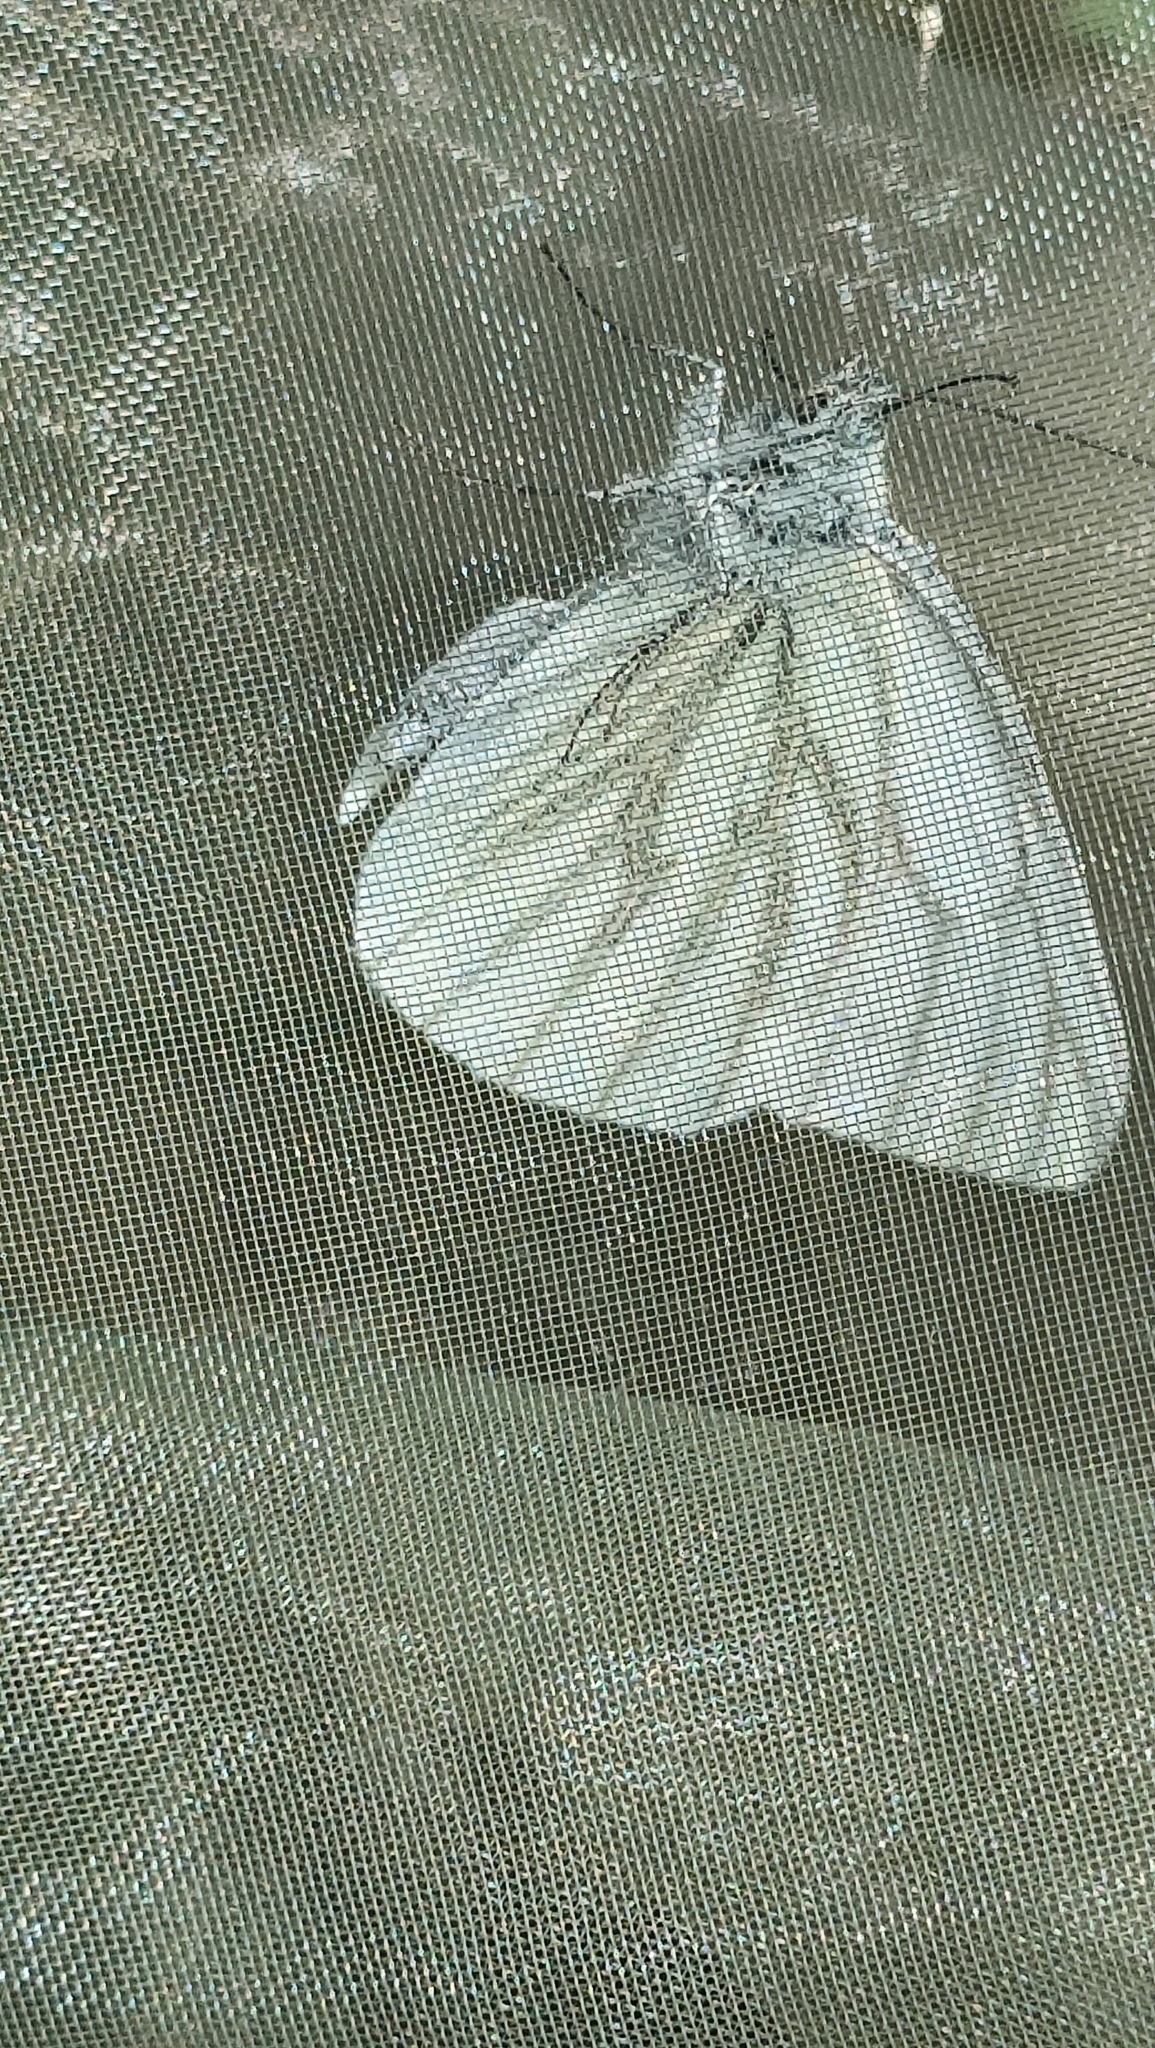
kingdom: Animalia
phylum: Arthropoda
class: Insecta
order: Lepidoptera
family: Pieridae
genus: Pieris
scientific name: Pieris napi
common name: Green-veined white
